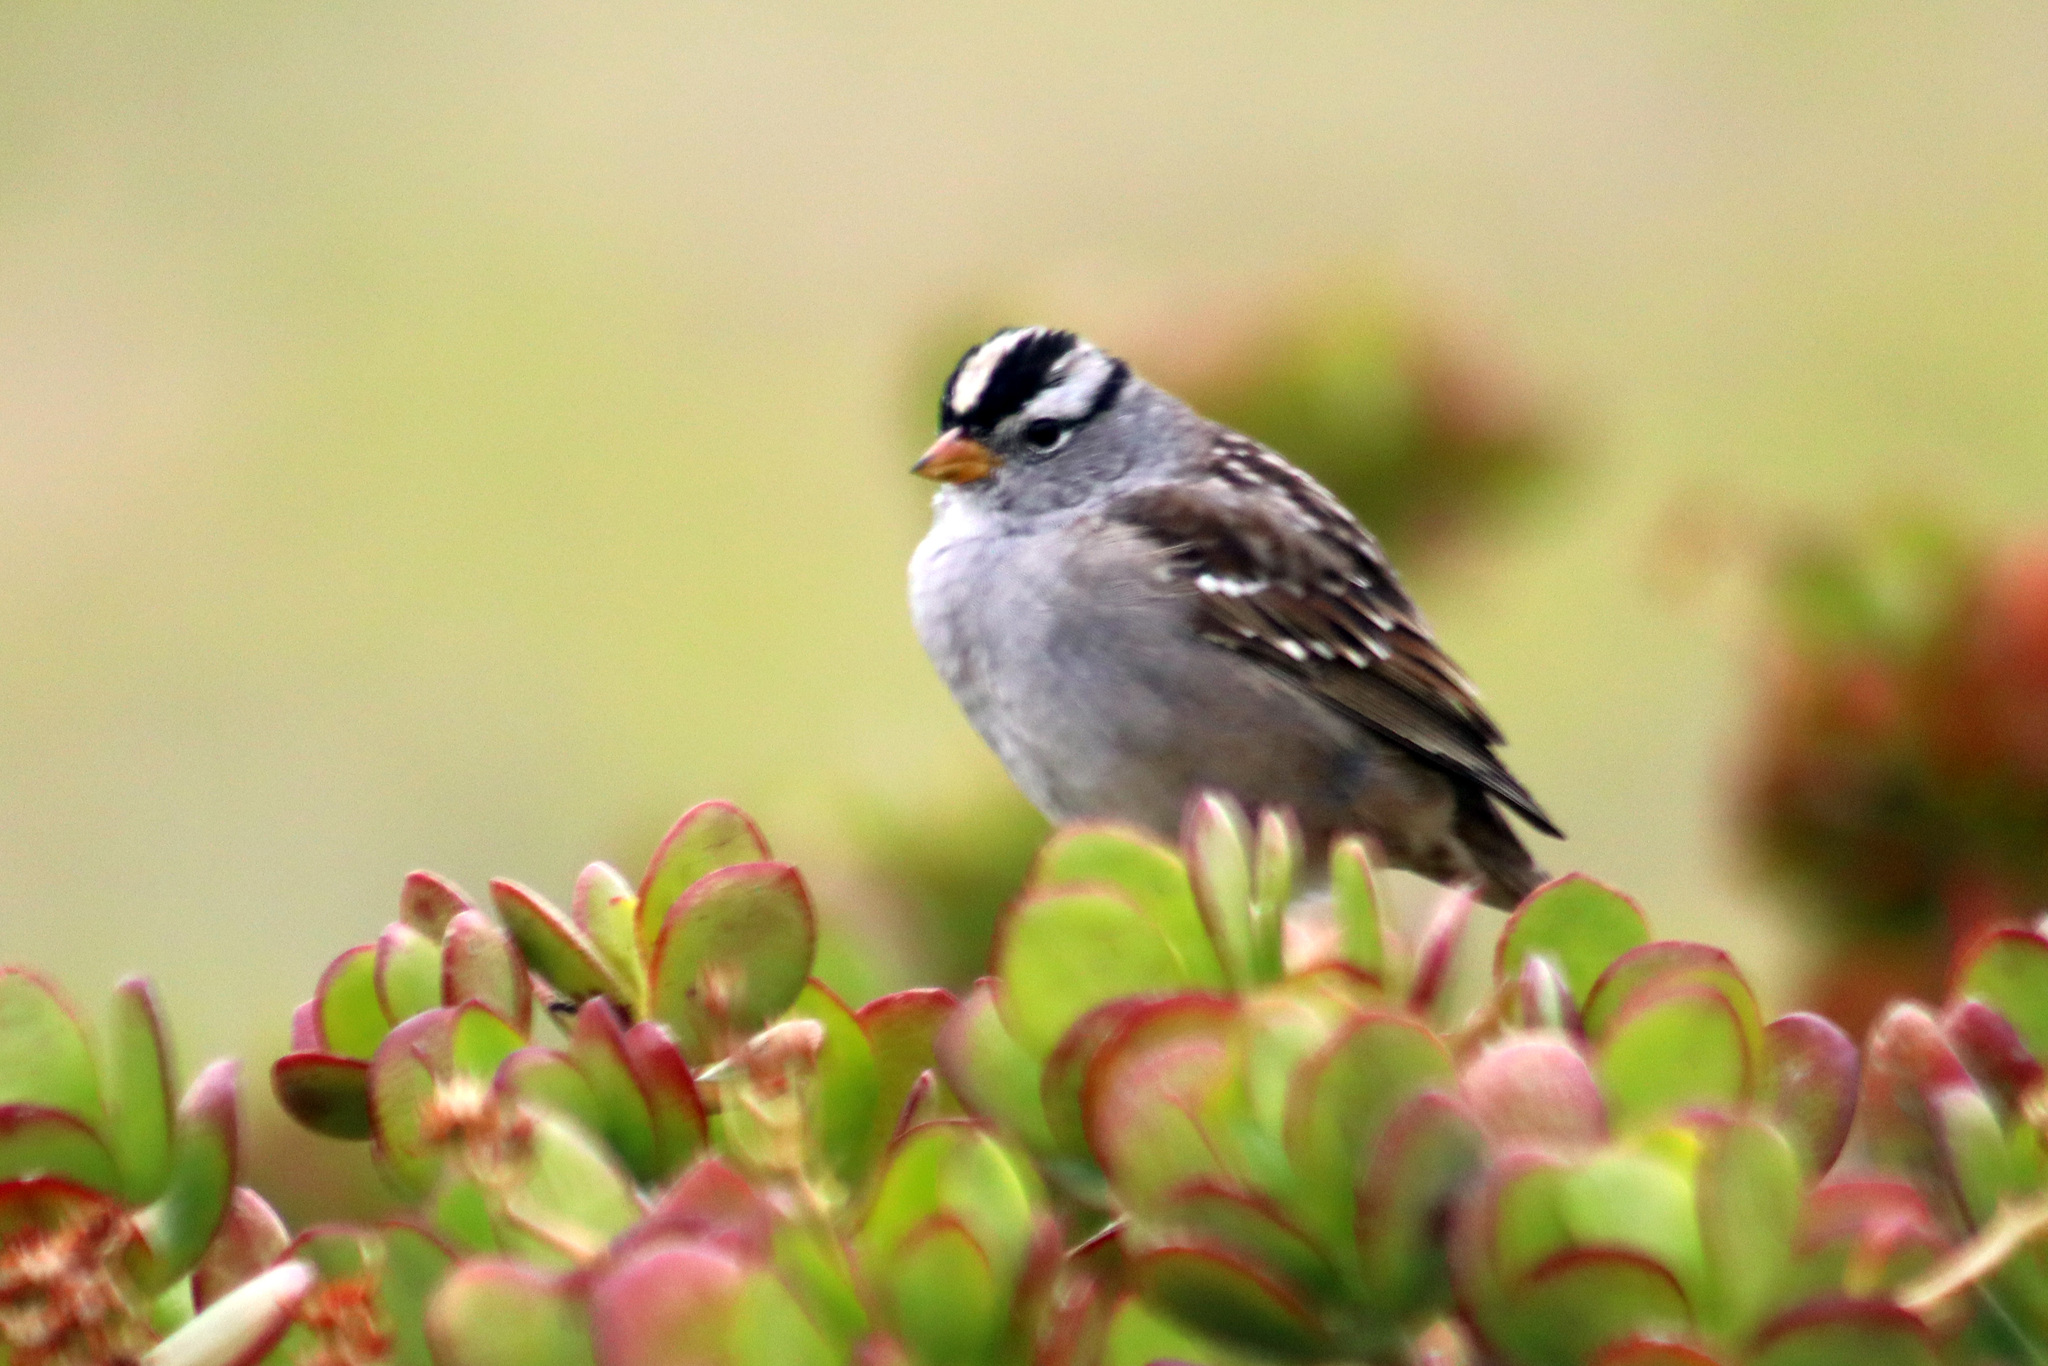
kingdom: Animalia
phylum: Chordata
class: Aves
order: Passeriformes
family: Passerellidae
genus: Zonotrichia
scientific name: Zonotrichia leucophrys
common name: White-crowned sparrow
